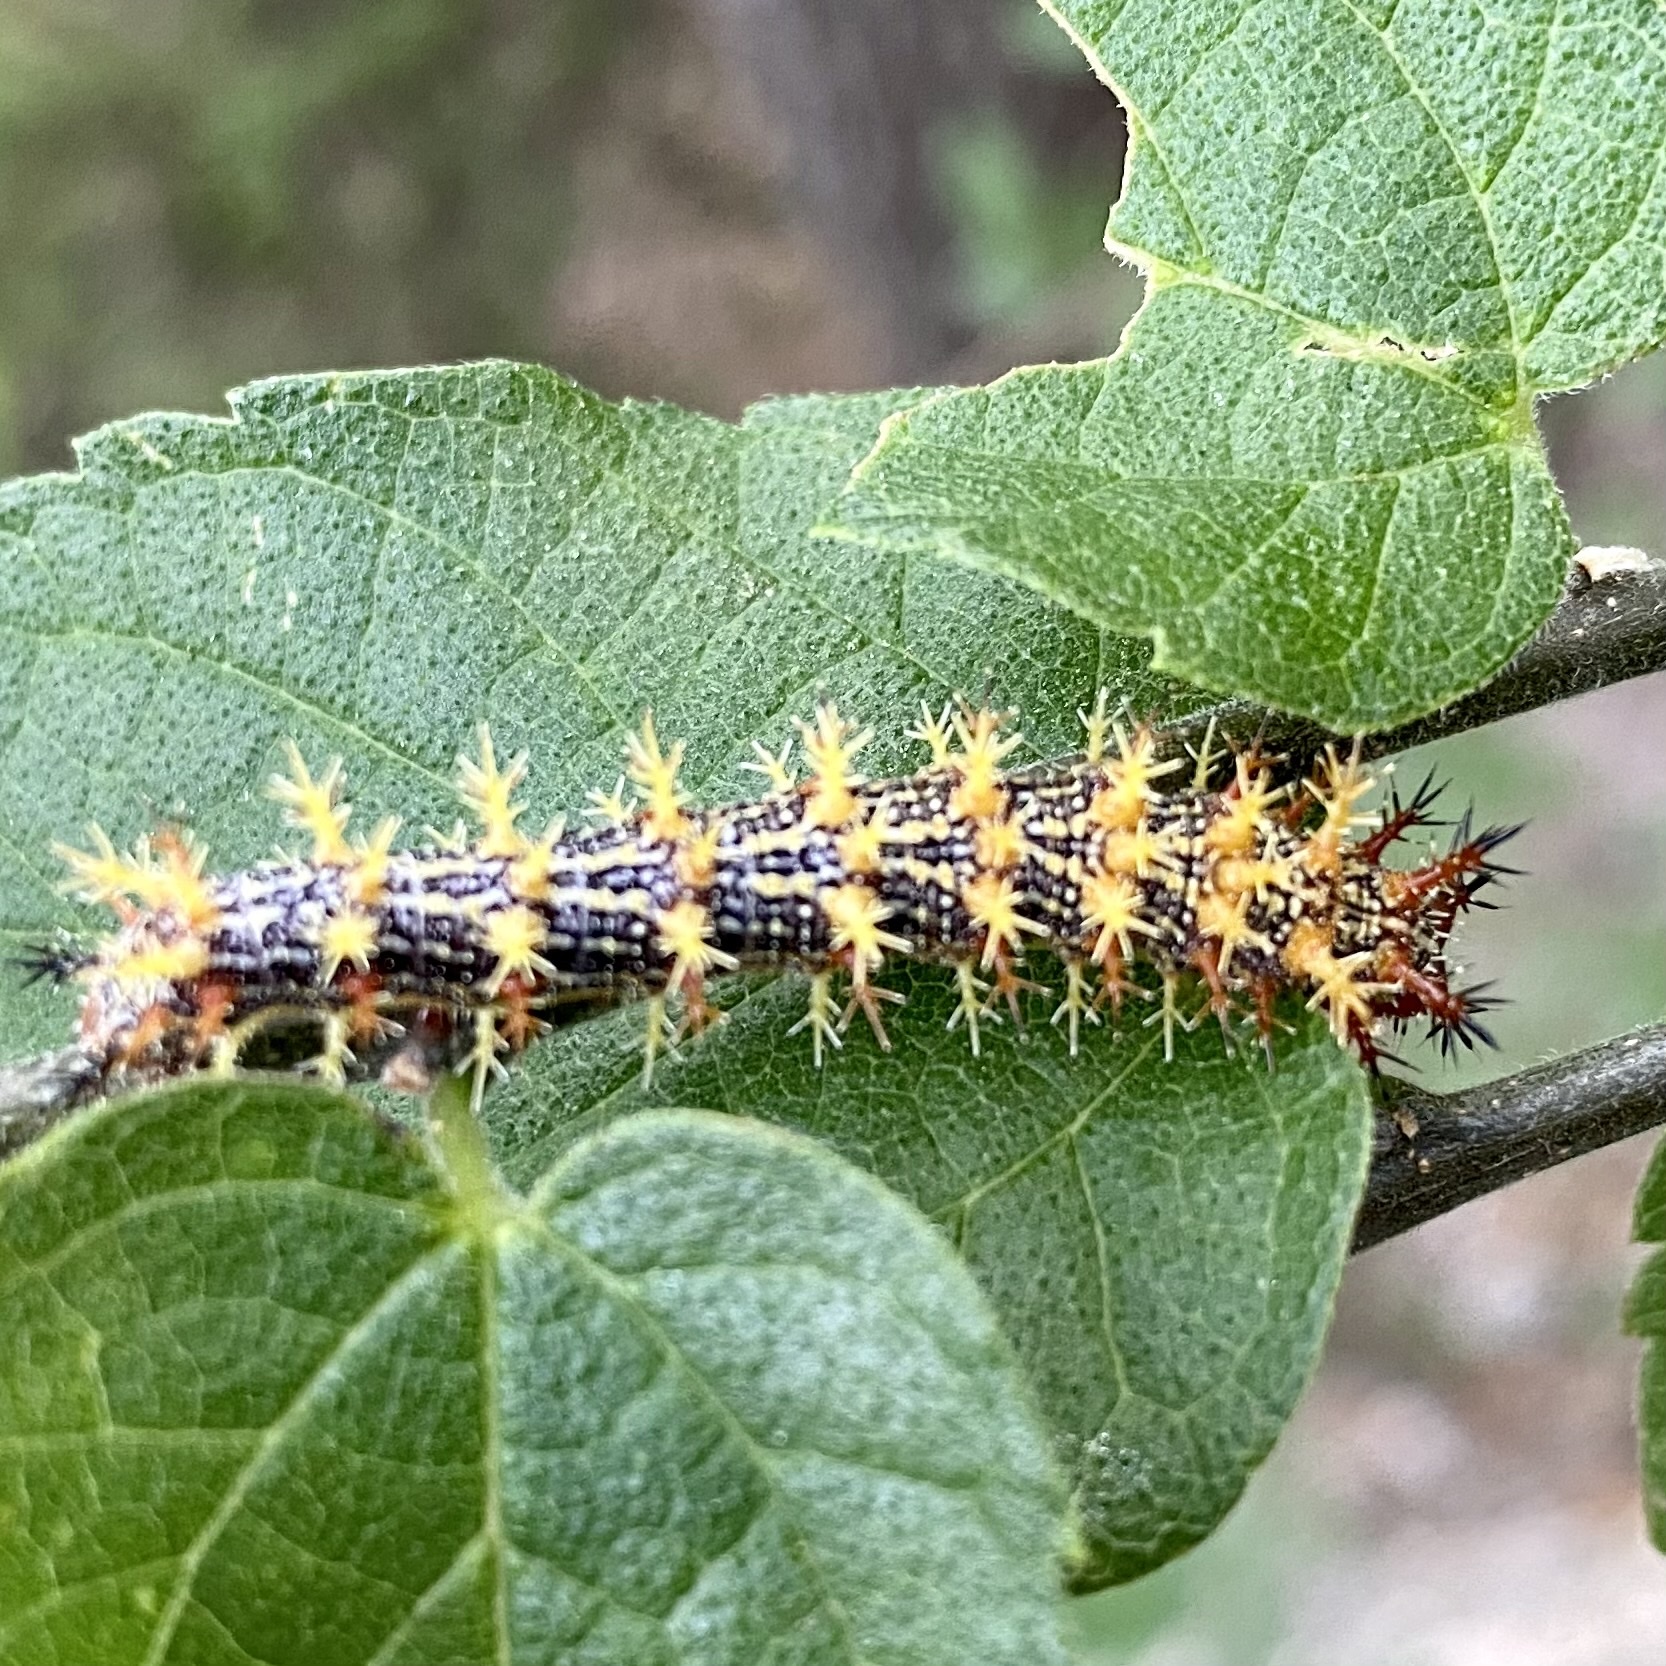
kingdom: Animalia
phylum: Arthropoda
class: Insecta
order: Lepidoptera
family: Nymphalidae
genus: Polygonia
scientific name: Polygonia interrogationis
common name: Question mark
